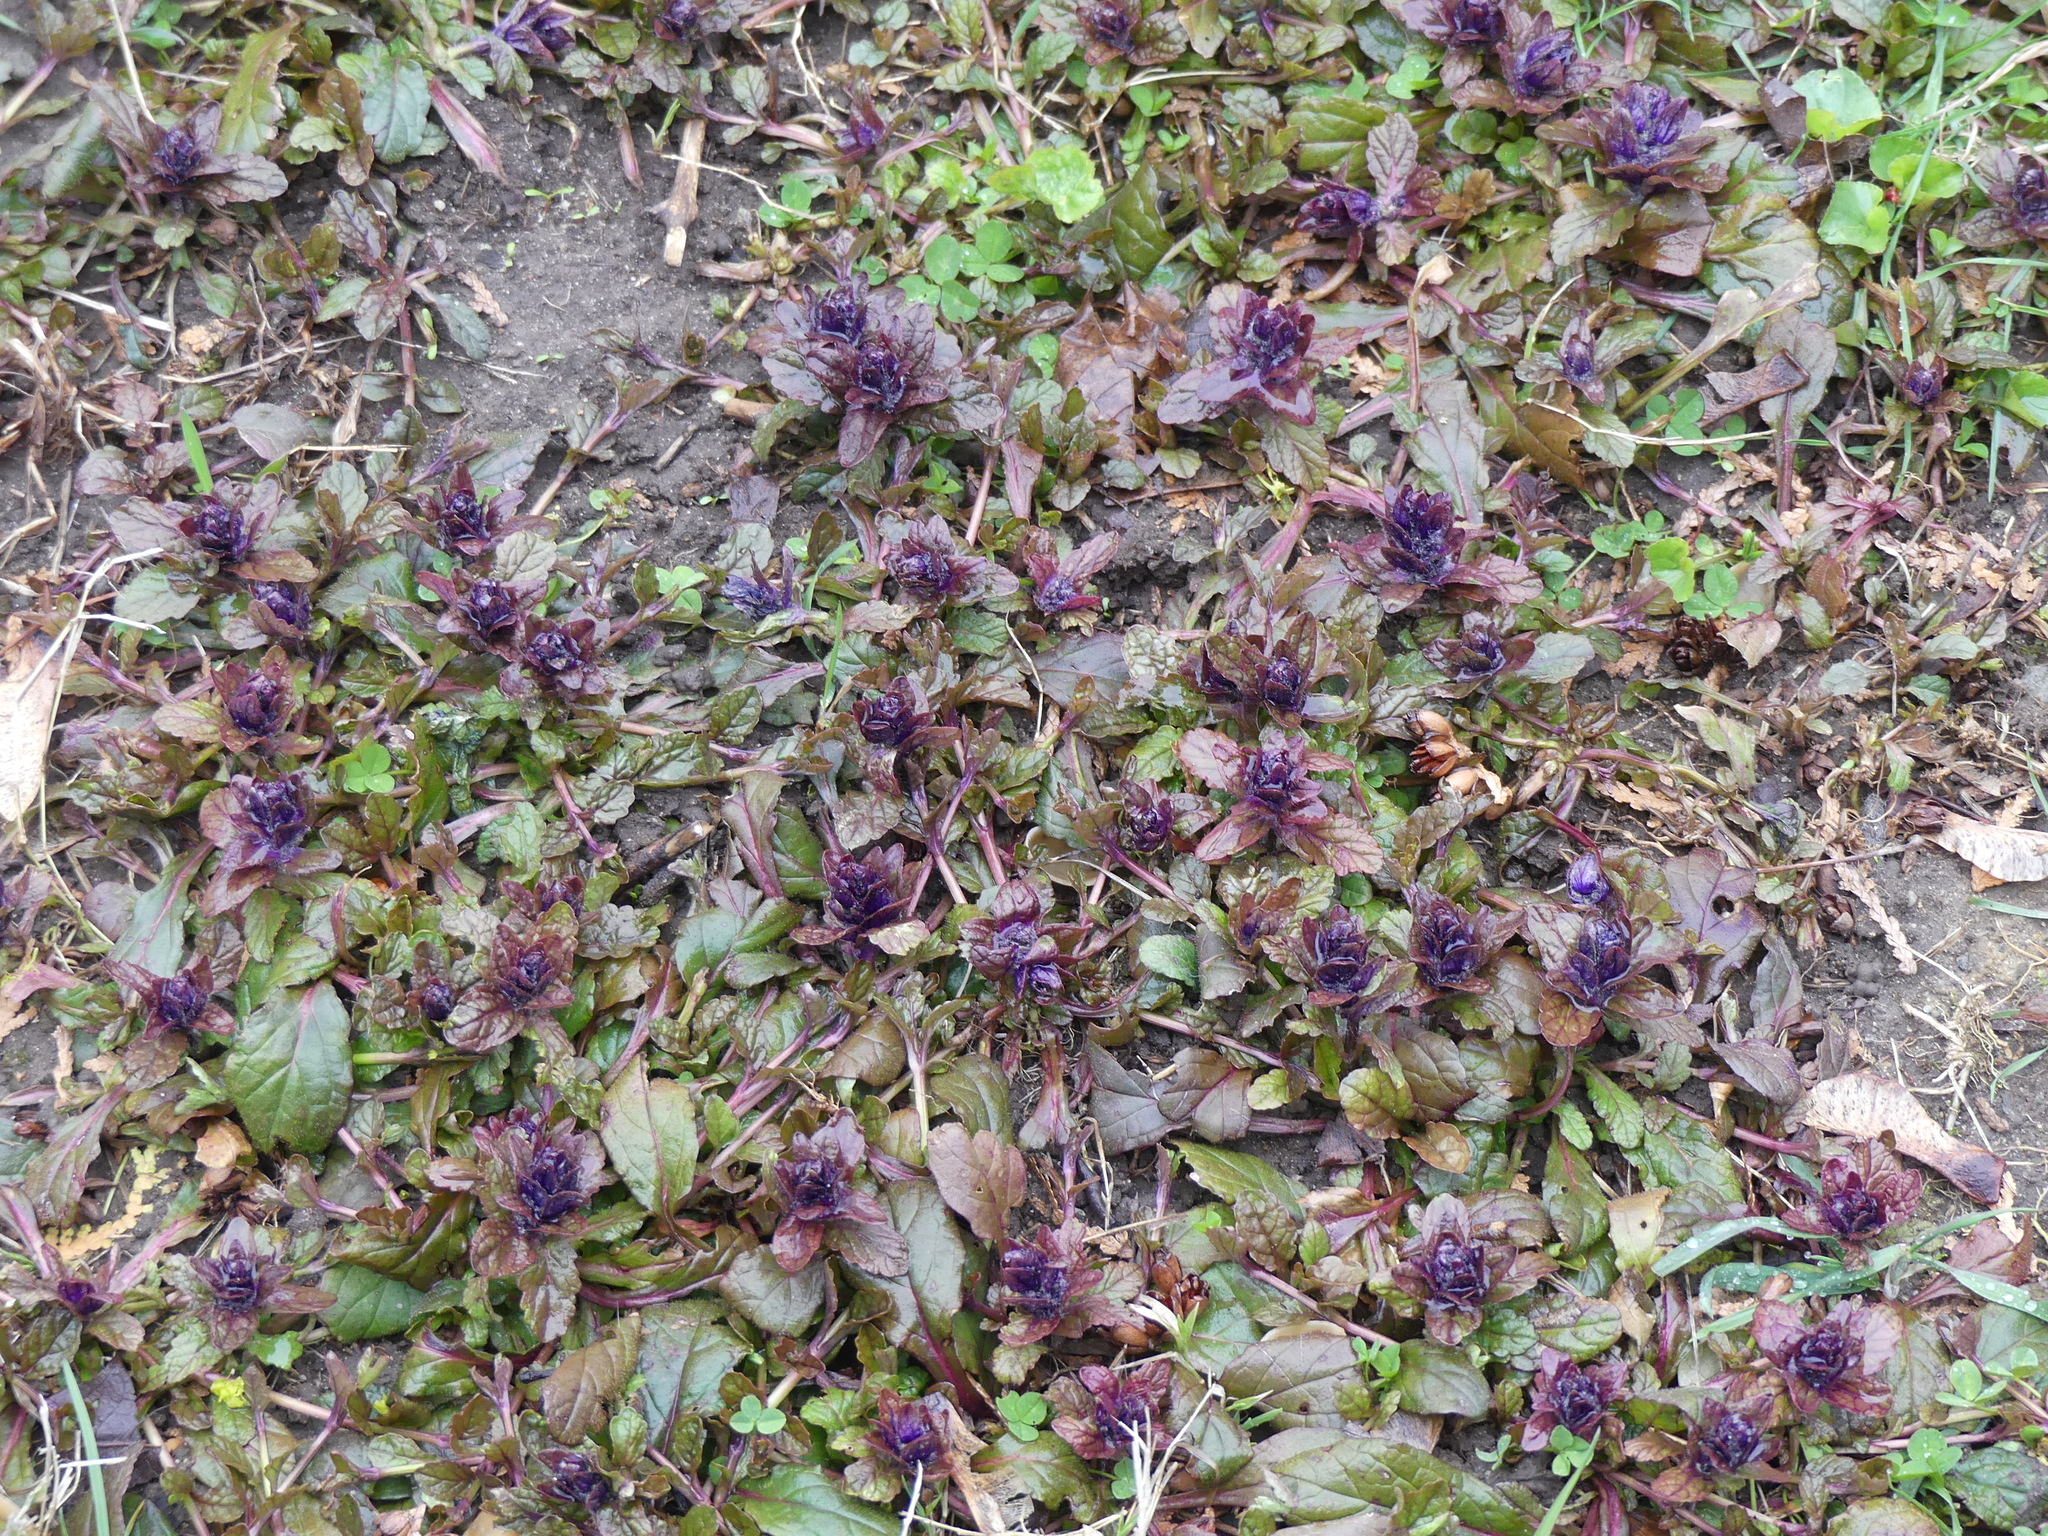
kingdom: Plantae
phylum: Tracheophyta
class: Magnoliopsida
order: Lamiales
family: Lamiaceae
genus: Ajuga
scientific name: Ajuga reptans
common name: Bugle
